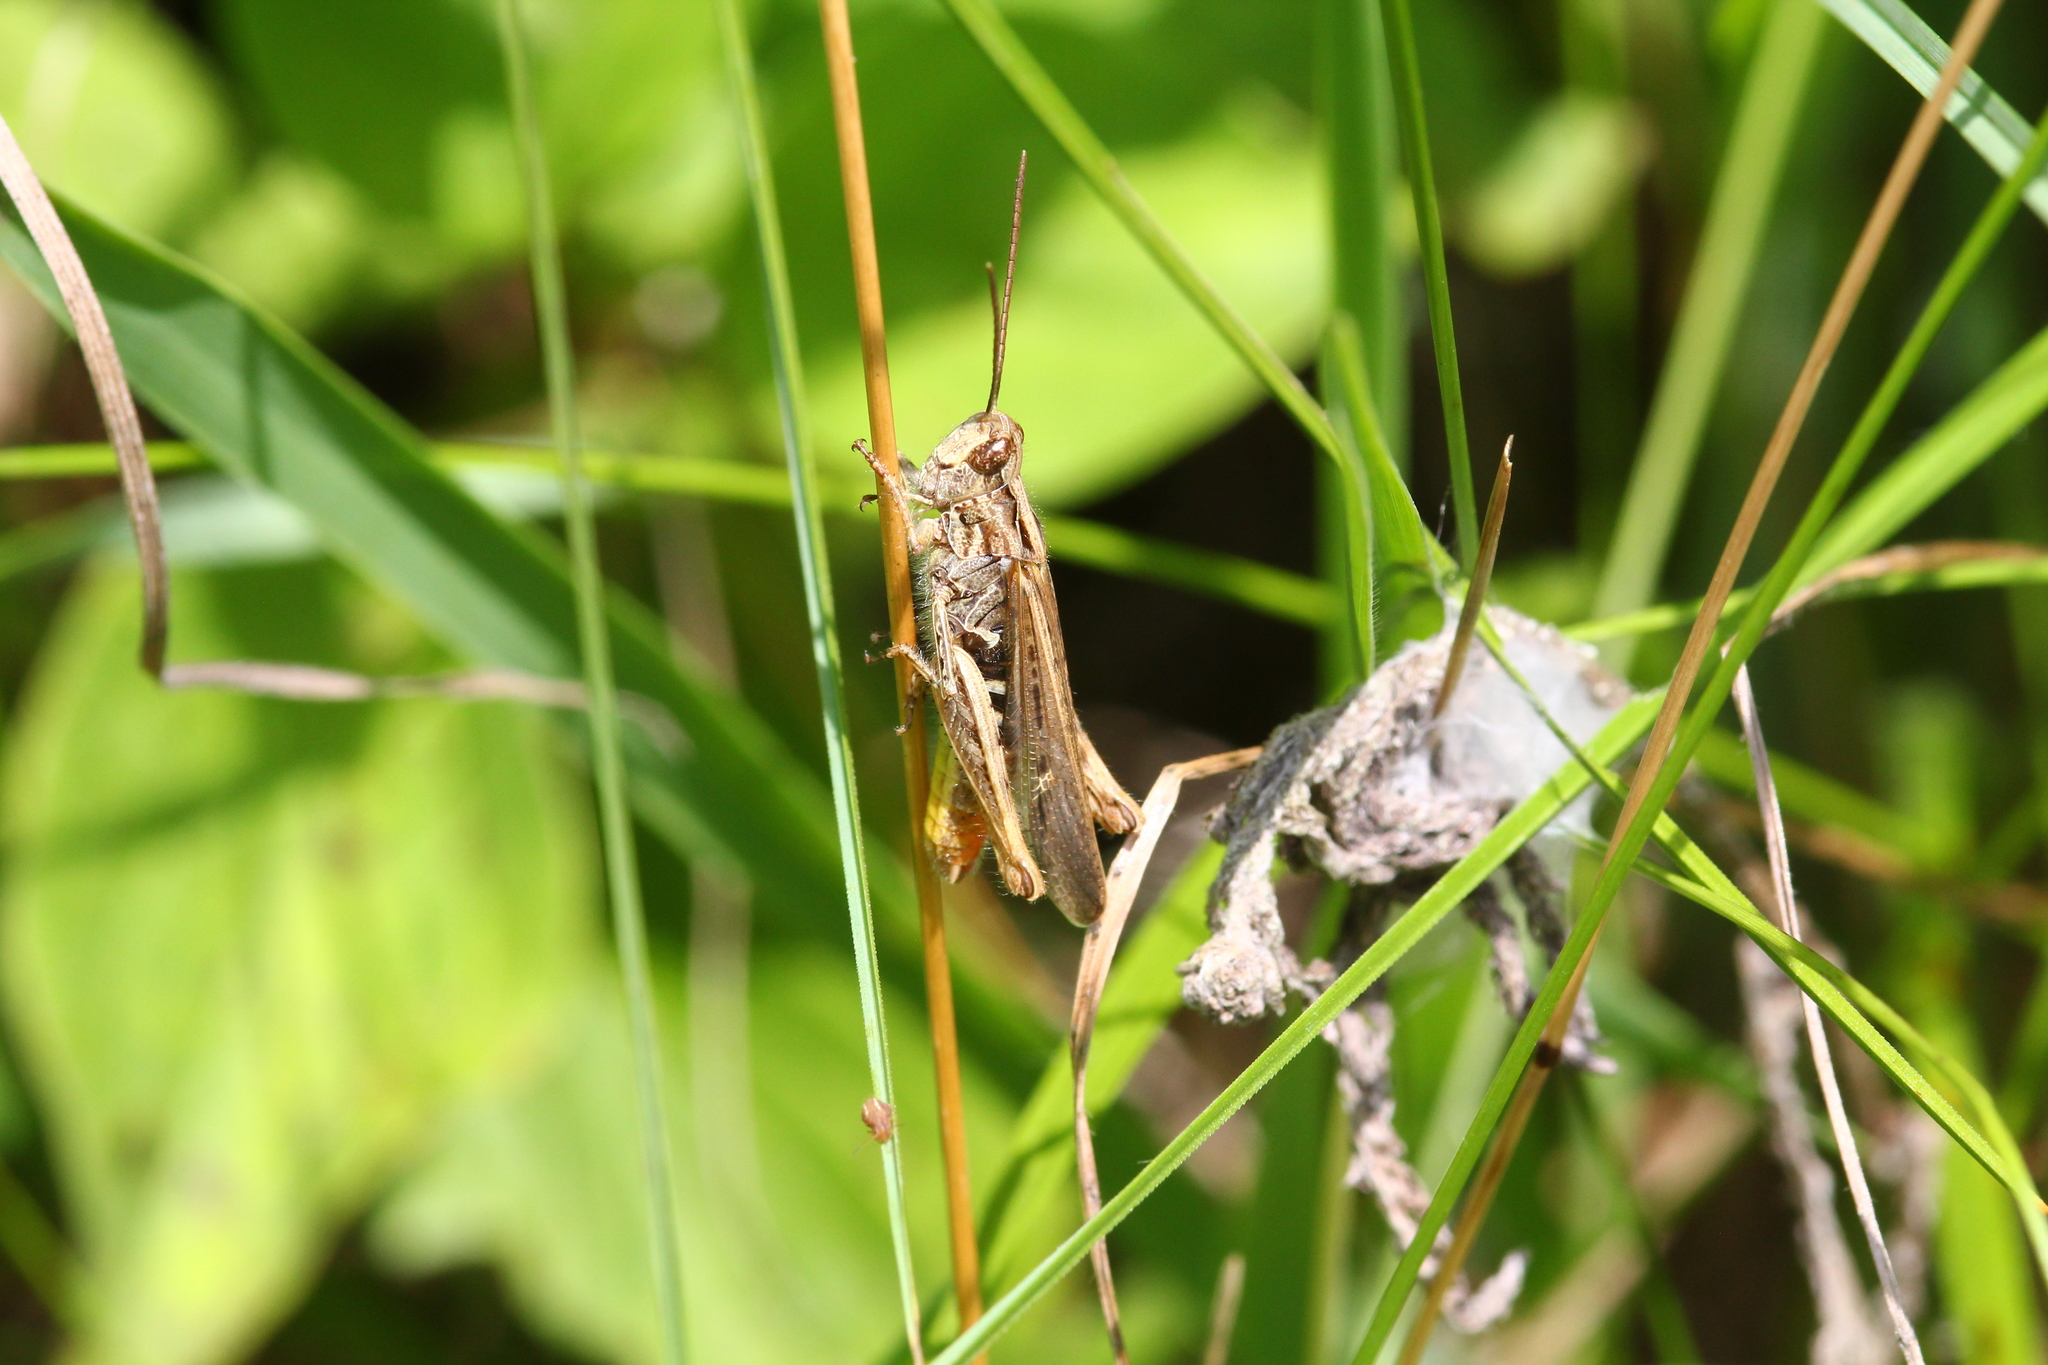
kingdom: Animalia
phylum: Arthropoda
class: Insecta
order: Orthoptera
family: Acrididae
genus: Chorthippus
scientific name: Chorthippus brunneus
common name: Field grasshopper
